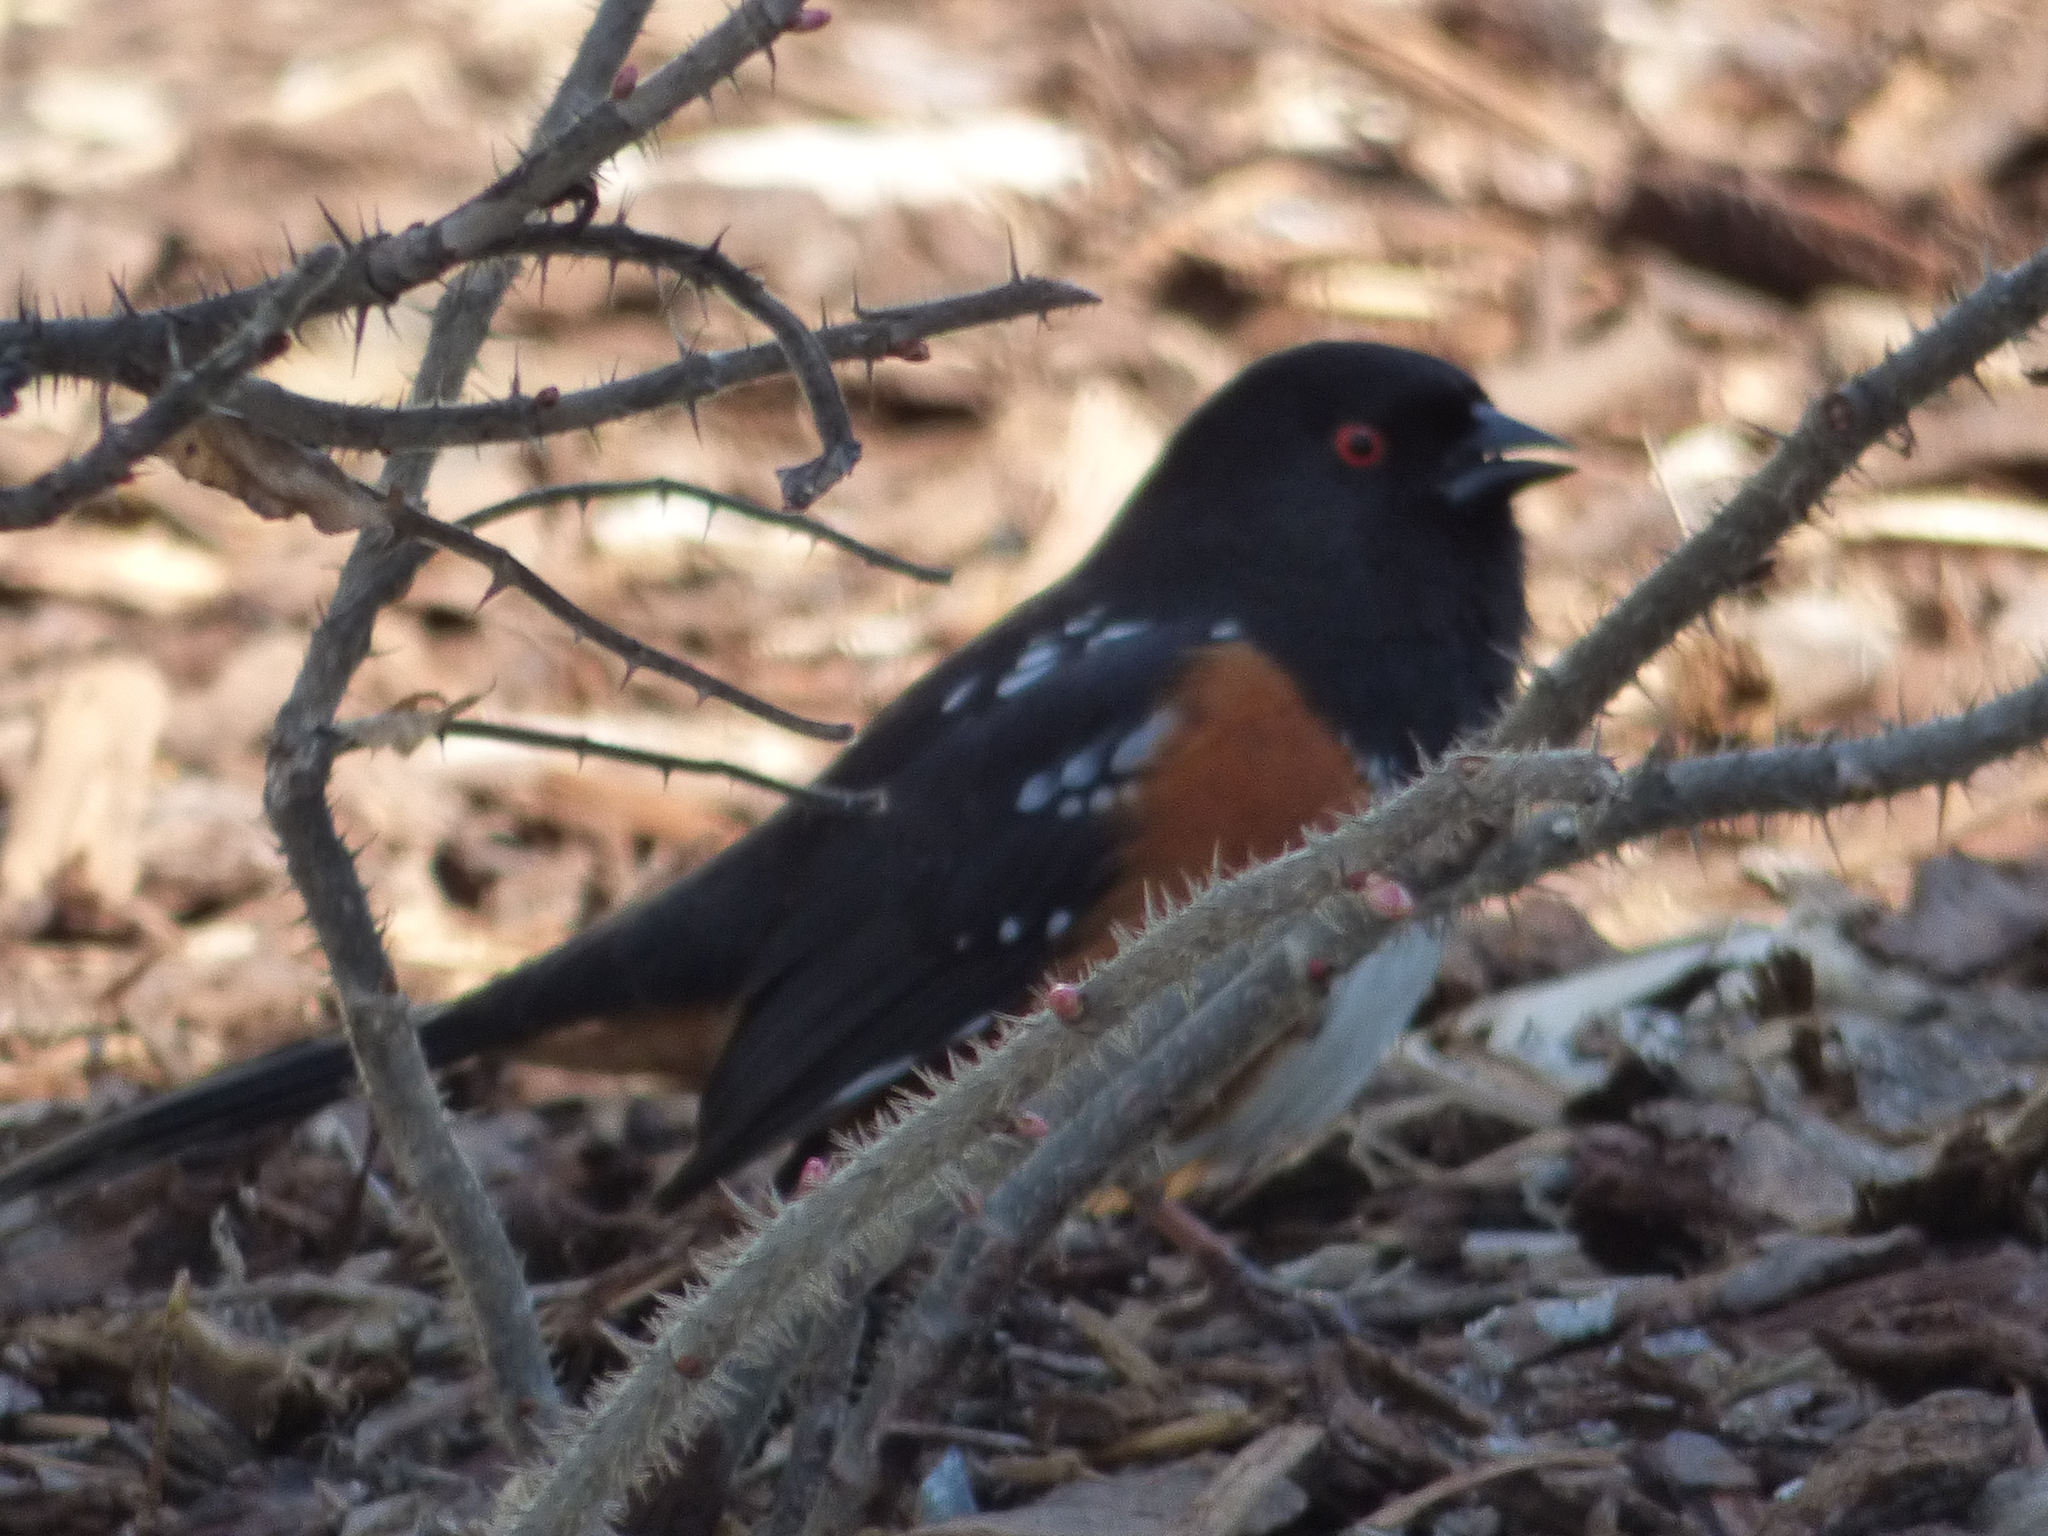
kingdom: Animalia
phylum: Chordata
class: Aves
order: Passeriformes
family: Passerellidae
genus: Pipilo
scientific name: Pipilo maculatus
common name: Spotted towhee
